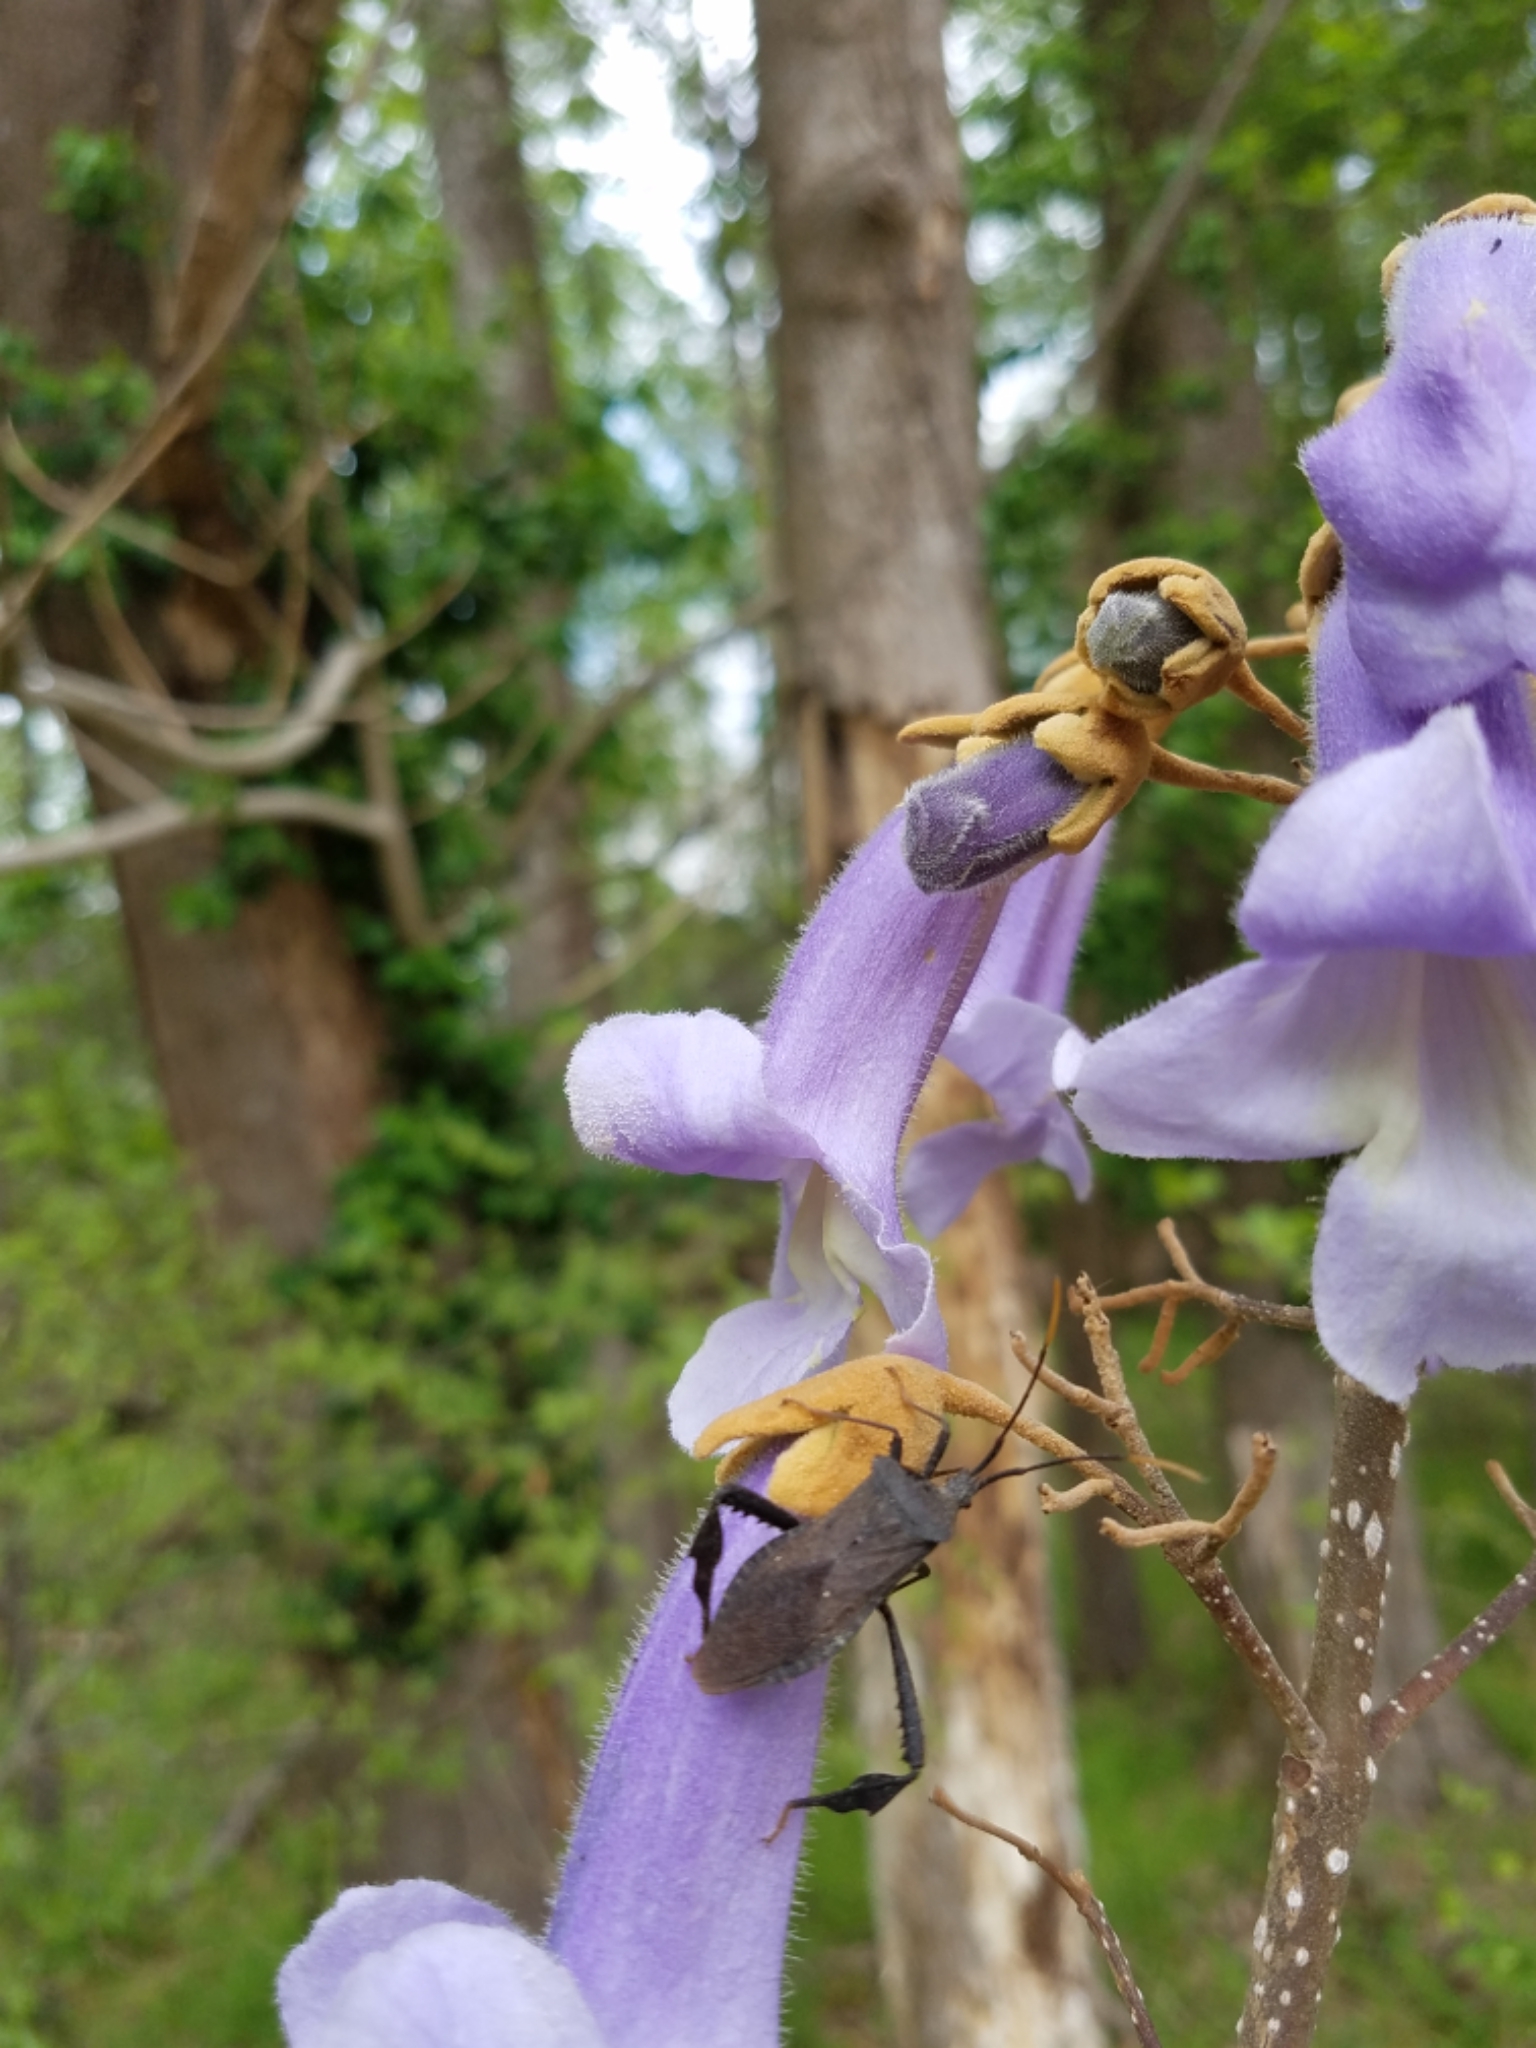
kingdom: Plantae
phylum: Tracheophyta
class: Magnoliopsida
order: Lamiales
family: Paulowniaceae
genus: Paulownia
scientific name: Paulownia tomentosa
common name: Foxglove-tree
